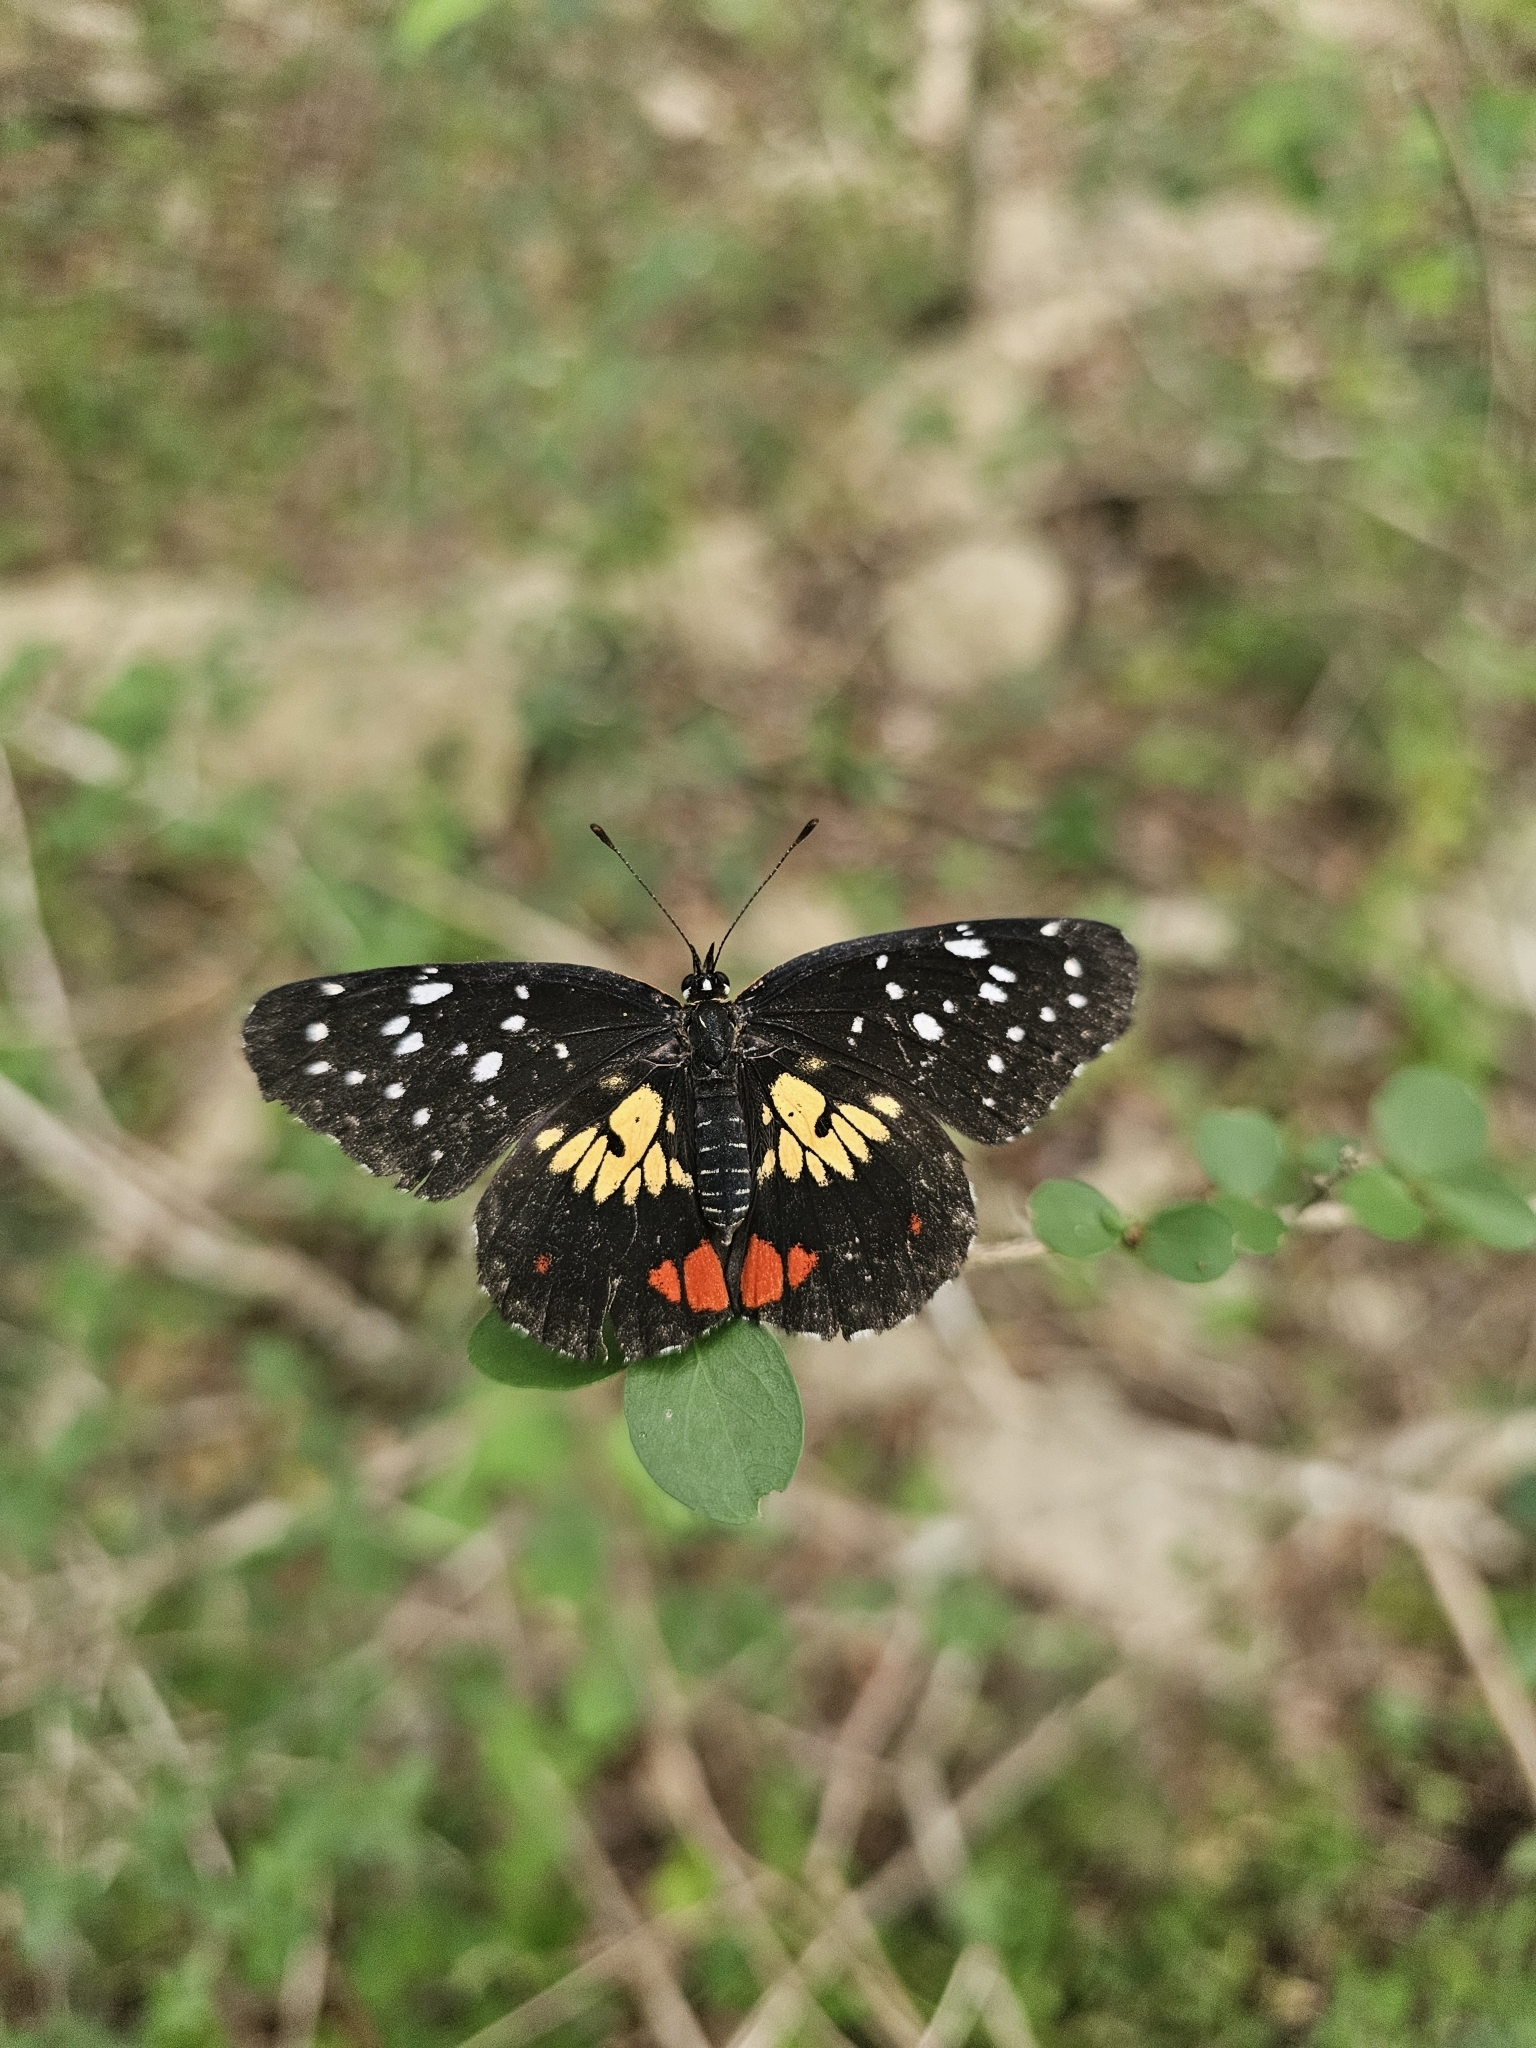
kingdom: Animalia
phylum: Arthropoda
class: Insecta
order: Lepidoptera
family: Nymphalidae
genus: Chlosyne
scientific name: Chlosyne erodyle
